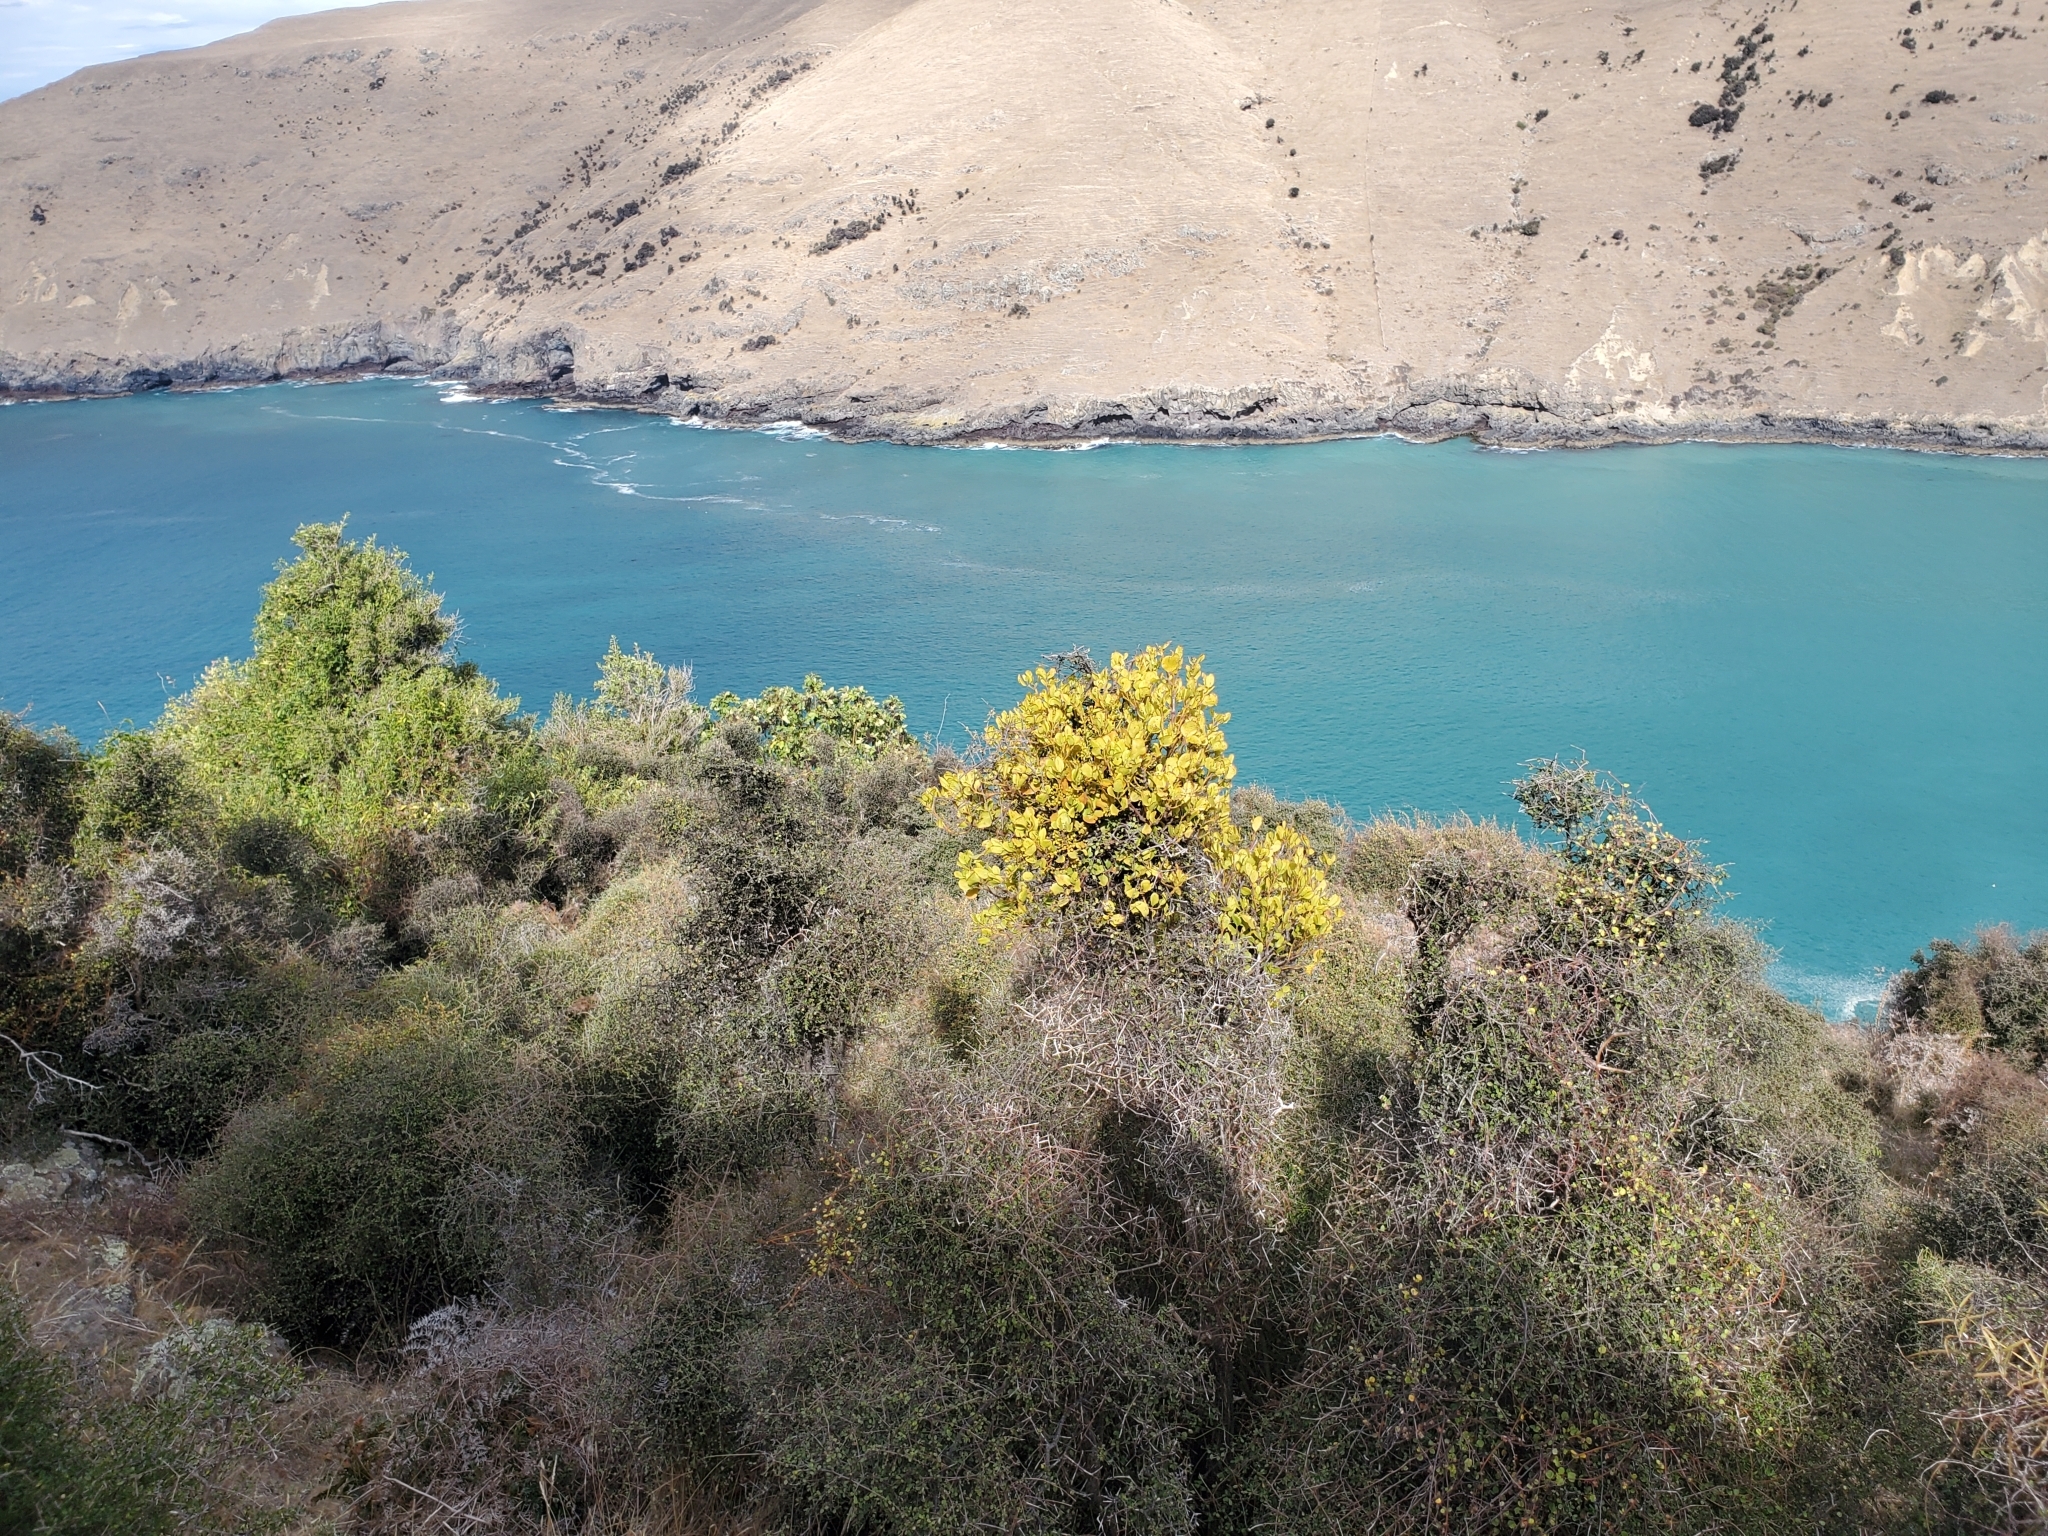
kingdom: Plantae
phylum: Tracheophyta
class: Magnoliopsida
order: Santalales
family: Loranthaceae
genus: Ileostylus
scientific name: Ileostylus micranthus
